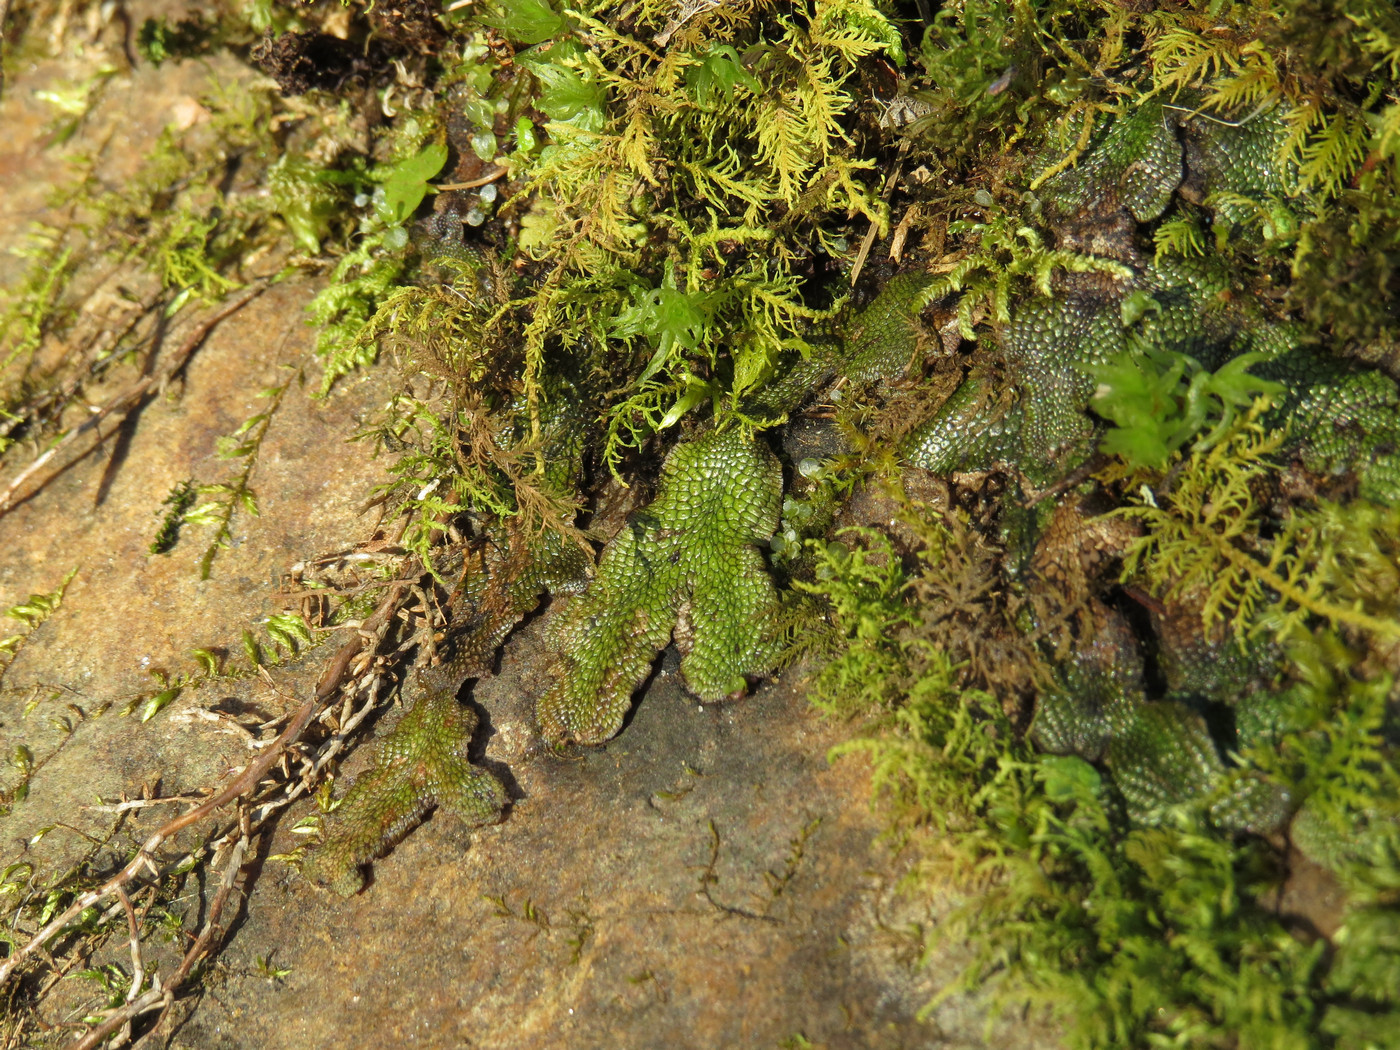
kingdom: Plantae
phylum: Marchantiophyta
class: Marchantiopsida
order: Marchantiales
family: Conocephalaceae
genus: Conocephalum
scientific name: Conocephalum salebrosum
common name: Cat-tongue liverwort
